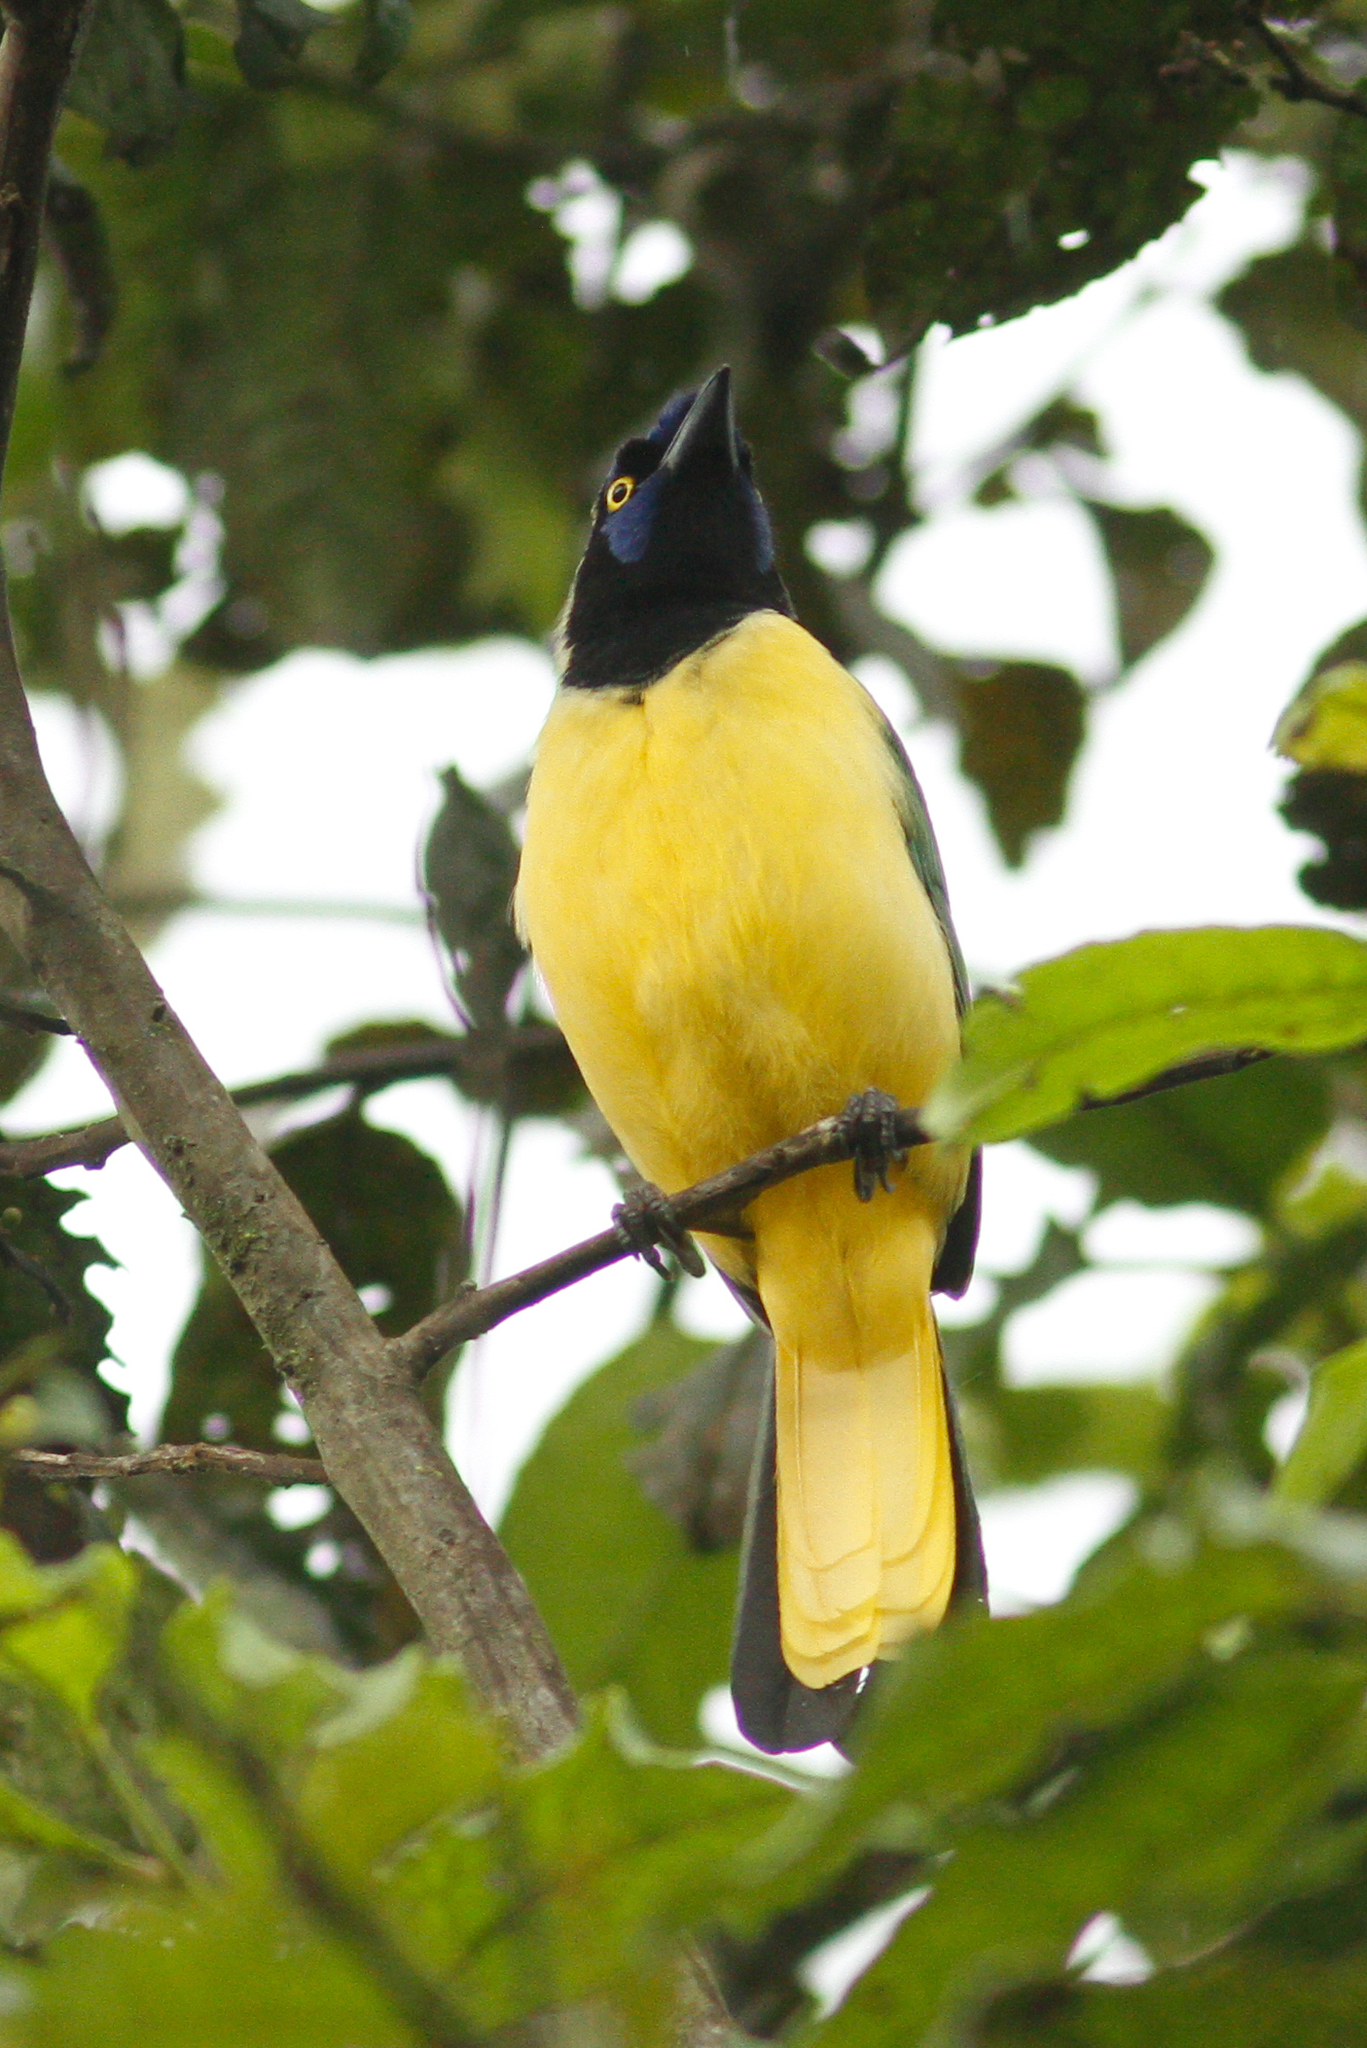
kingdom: Animalia
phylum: Chordata
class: Aves
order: Passeriformes
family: Corvidae
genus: Cyanocorax
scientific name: Cyanocorax yncas
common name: Green jay
